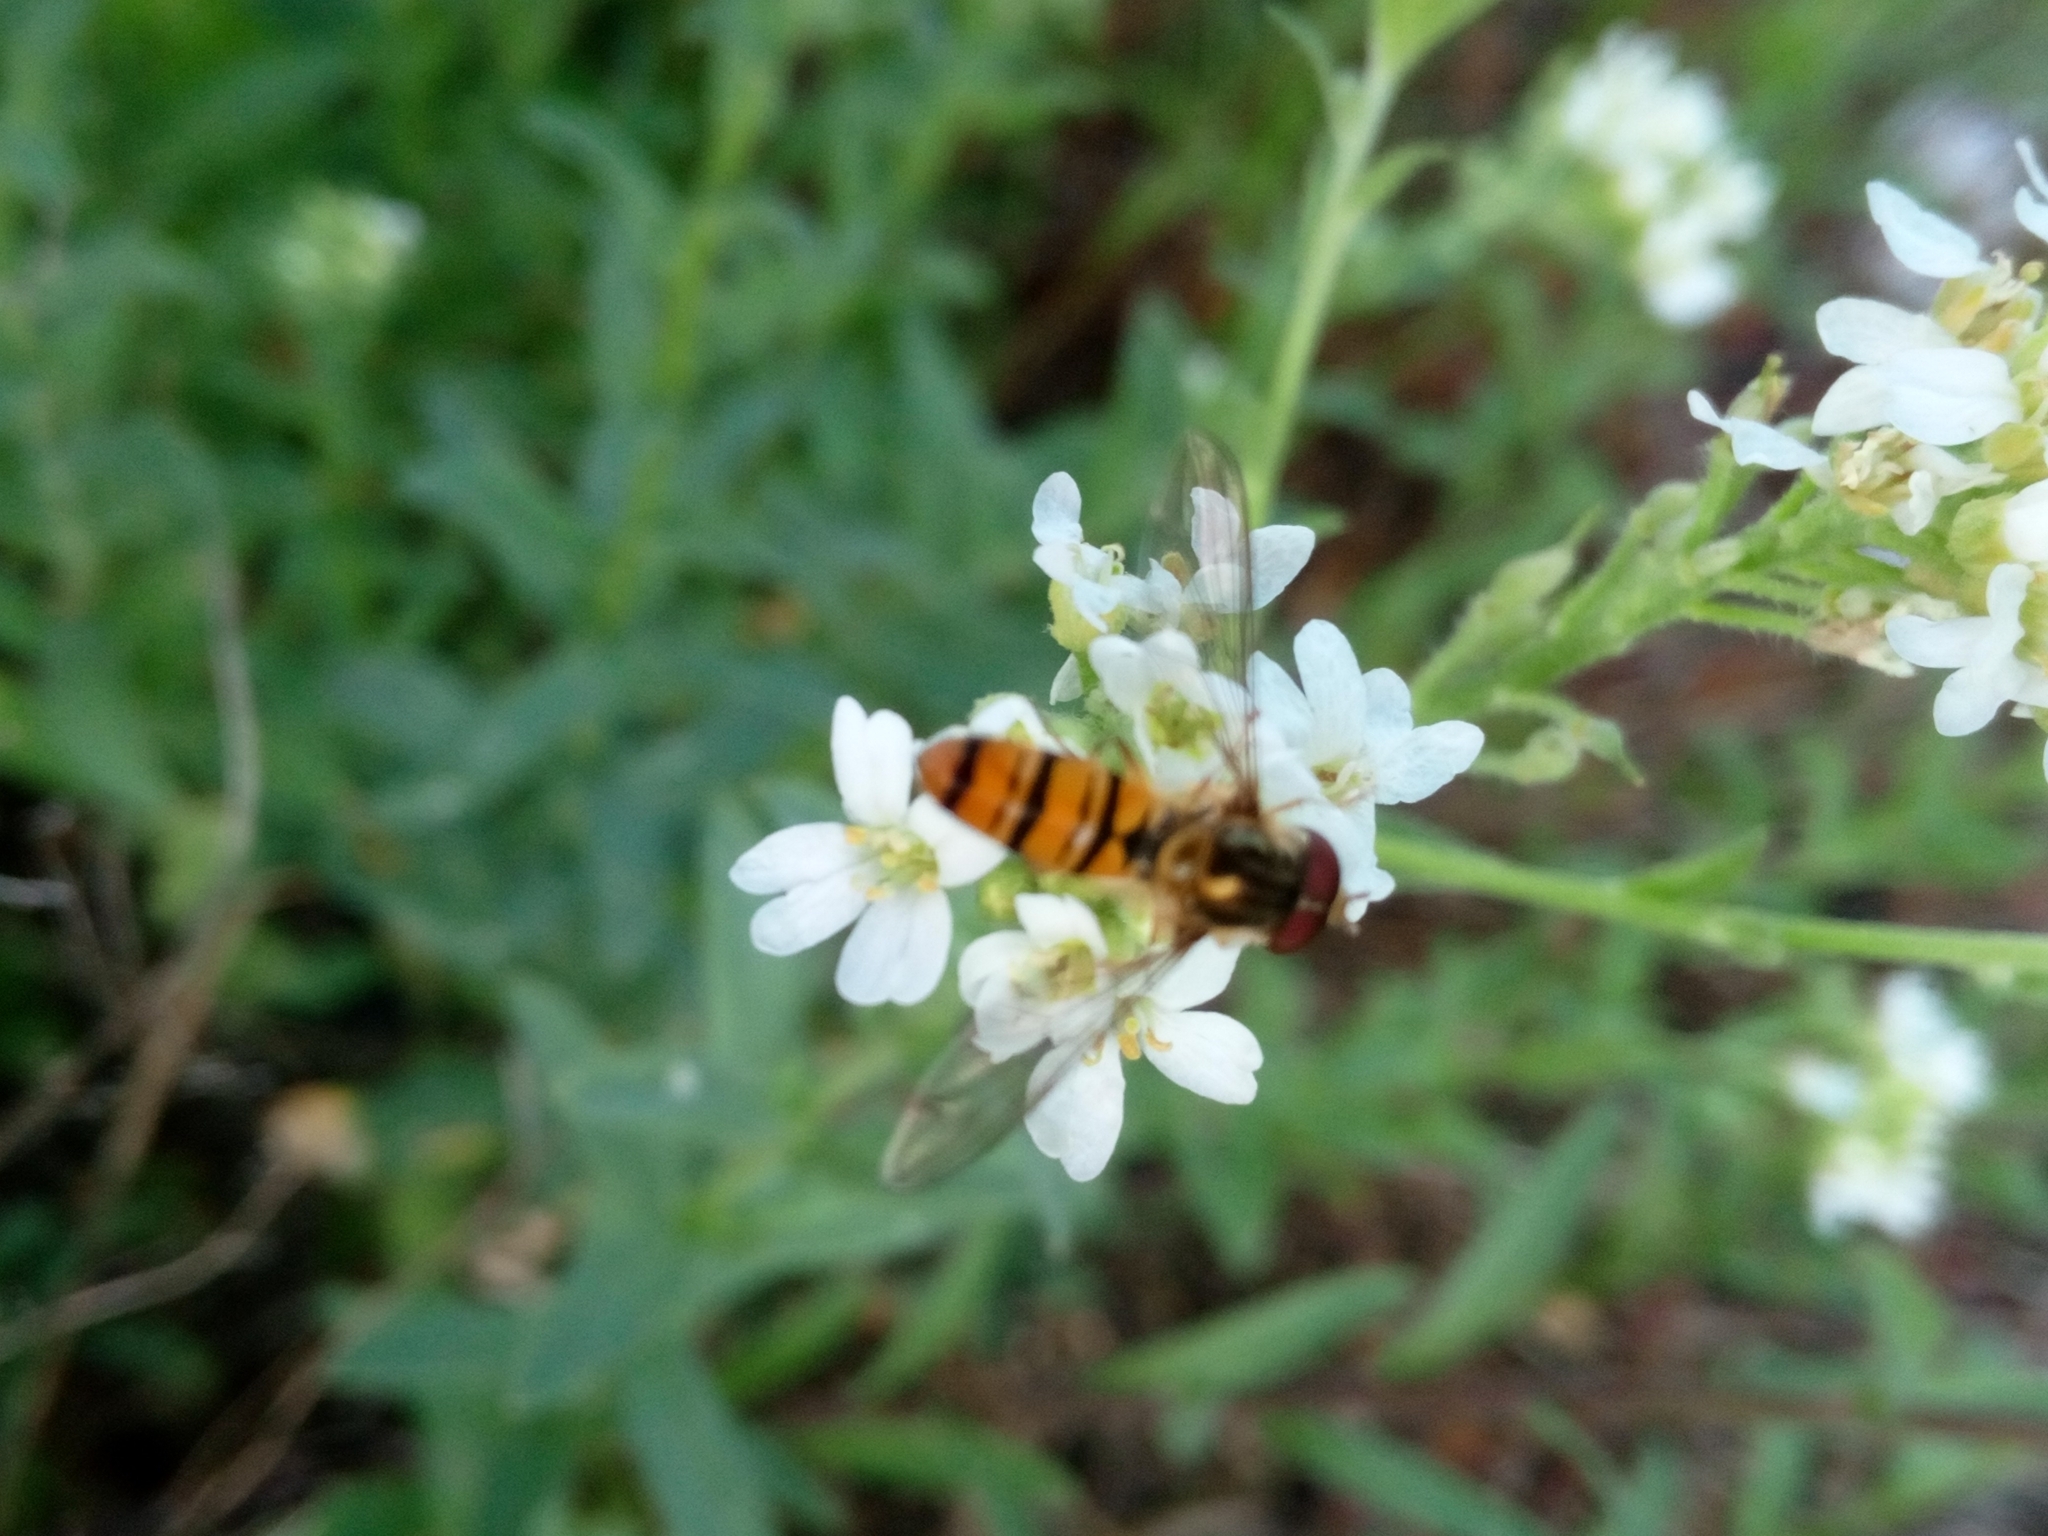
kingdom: Animalia
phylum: Arthropoda
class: Insecta
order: Diptera
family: Syrphidae
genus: Episyrphus
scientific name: Episyrphus balteatus
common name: Marmalade hoverfly
